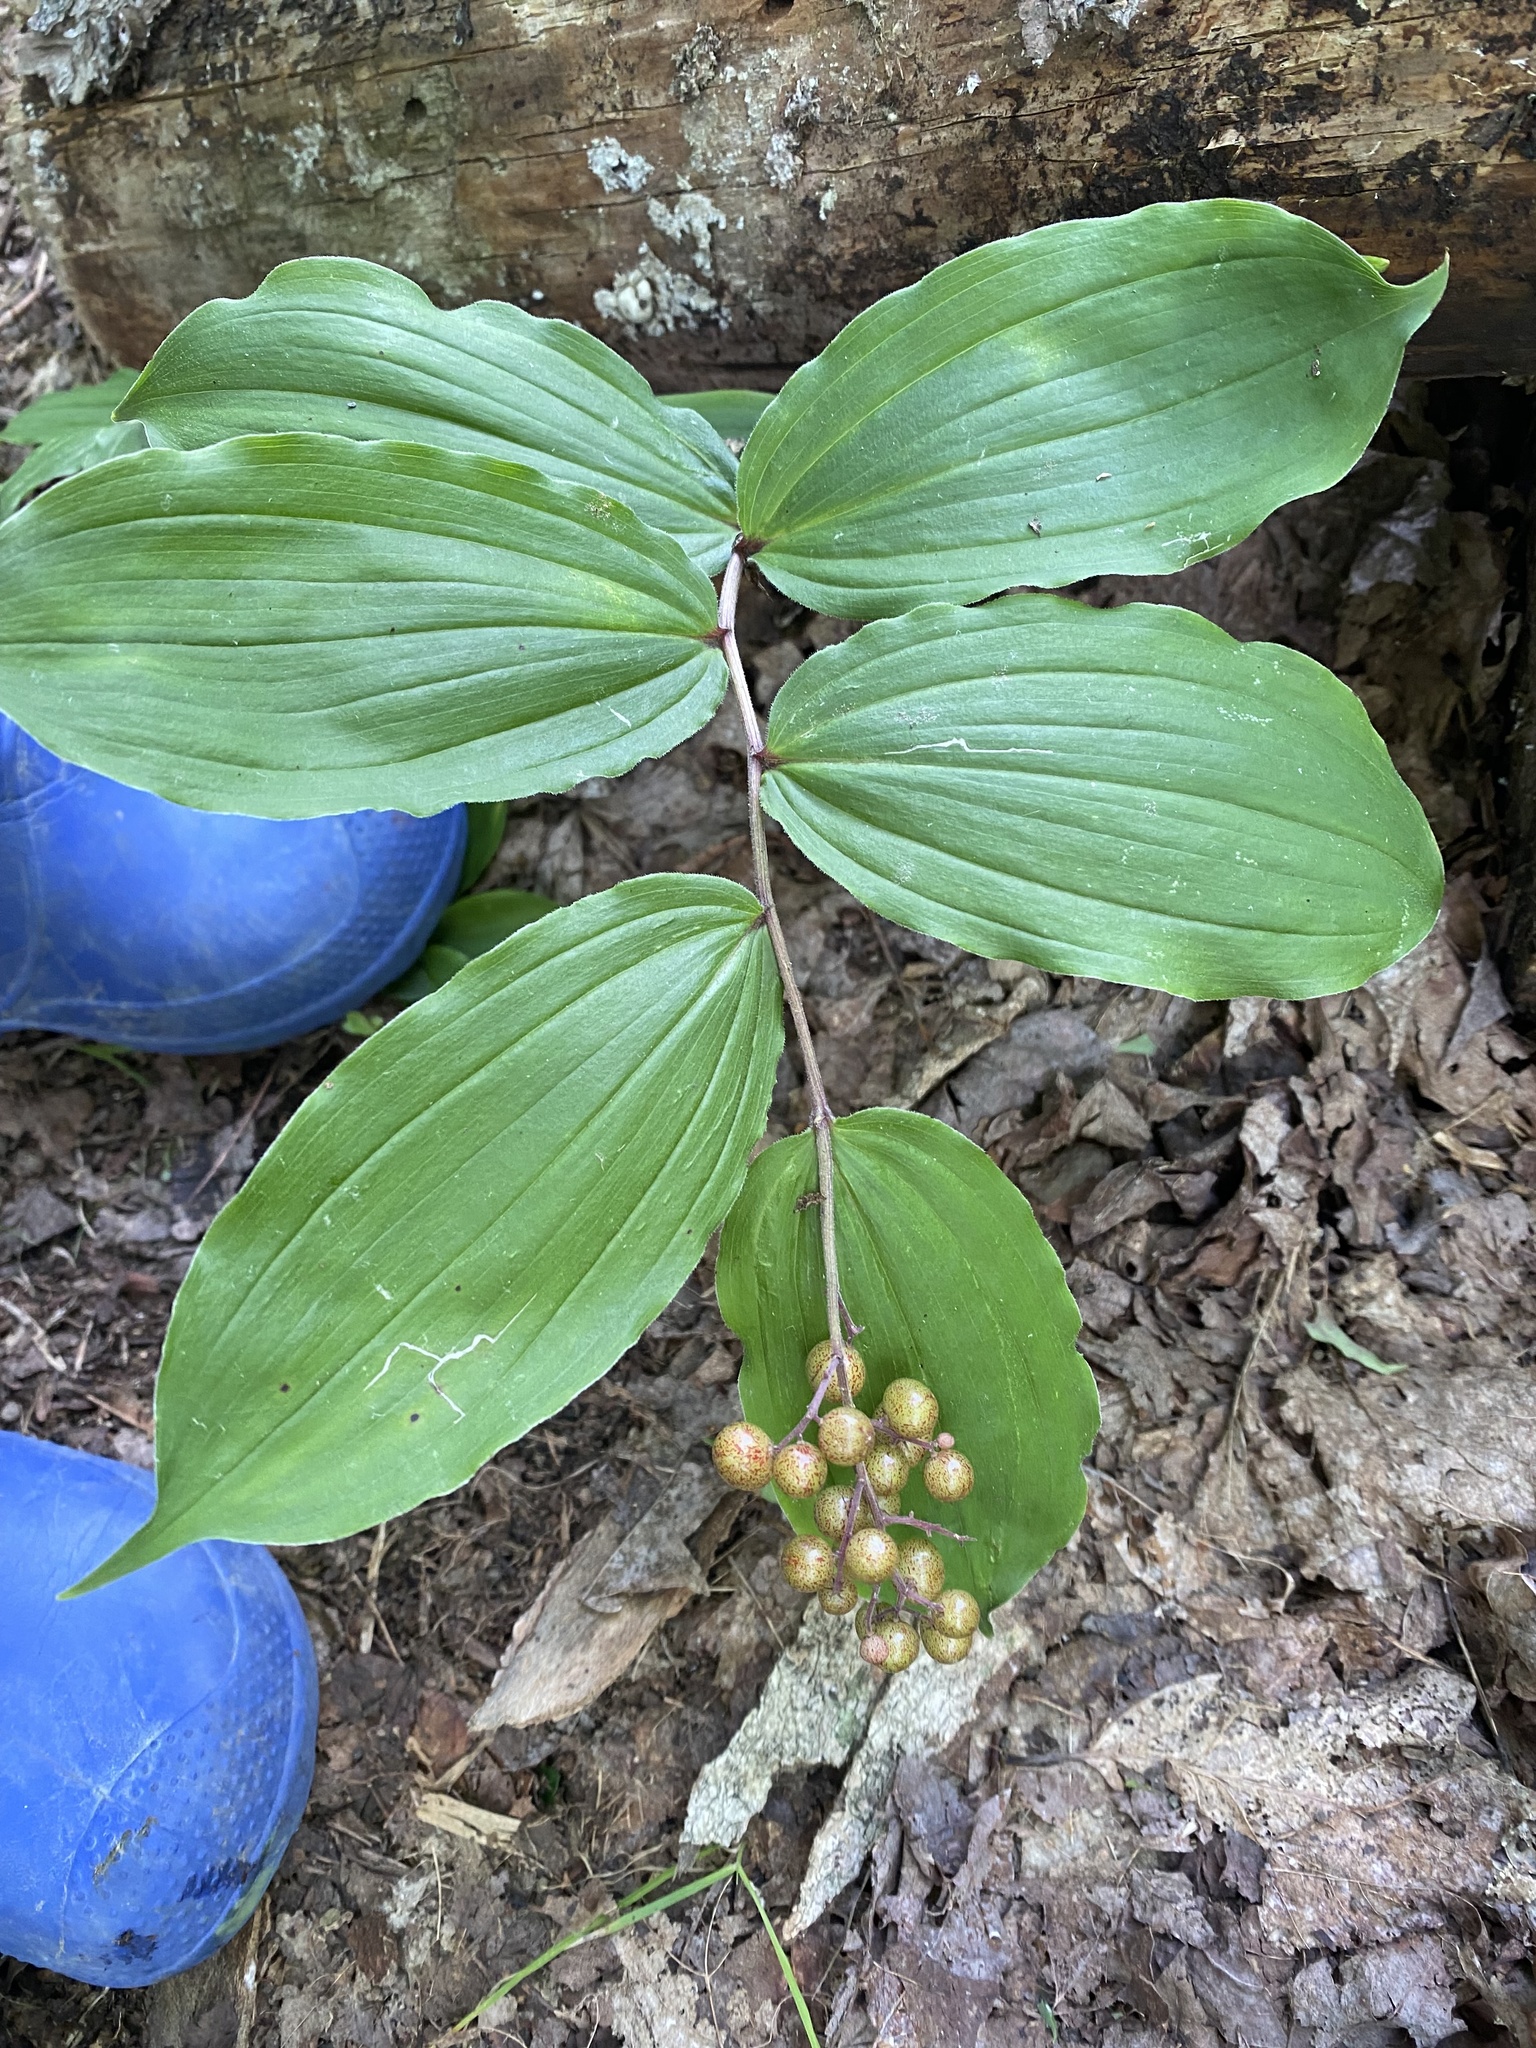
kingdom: Plantae
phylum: Tracheophyta
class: Liliopsida
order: Asparagales
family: Asparagaceae
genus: Maianthemum
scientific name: Maianthemum racemosum
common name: False spikenard
